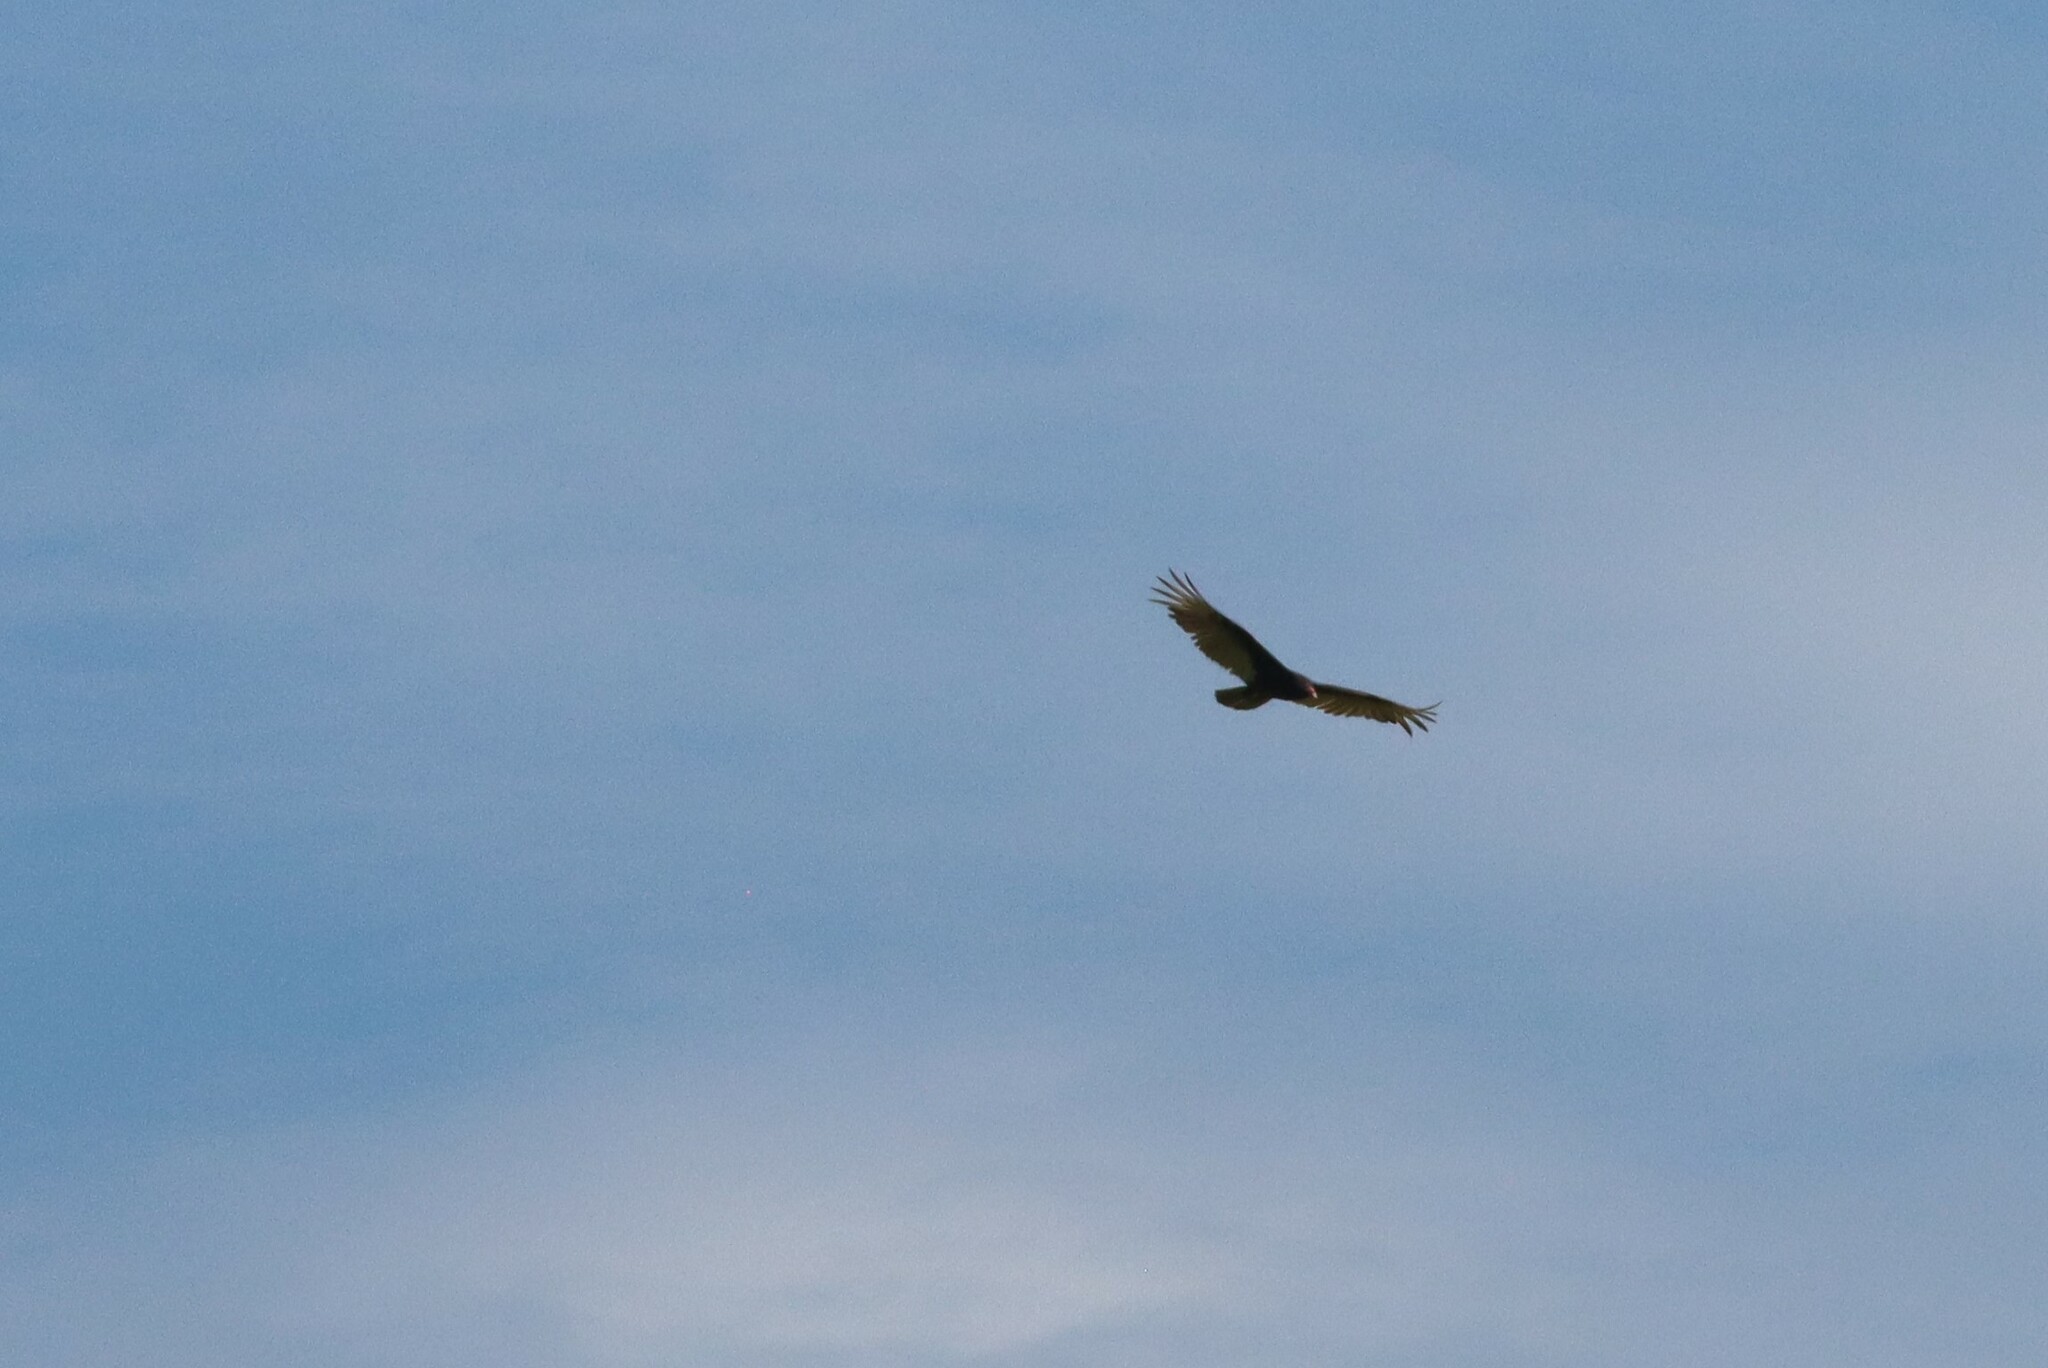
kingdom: Animalia
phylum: Chordata
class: Aves
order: Accipitriformes
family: Cathartidae
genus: Cathartes
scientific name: Cathartes aura
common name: Turkey vulture
